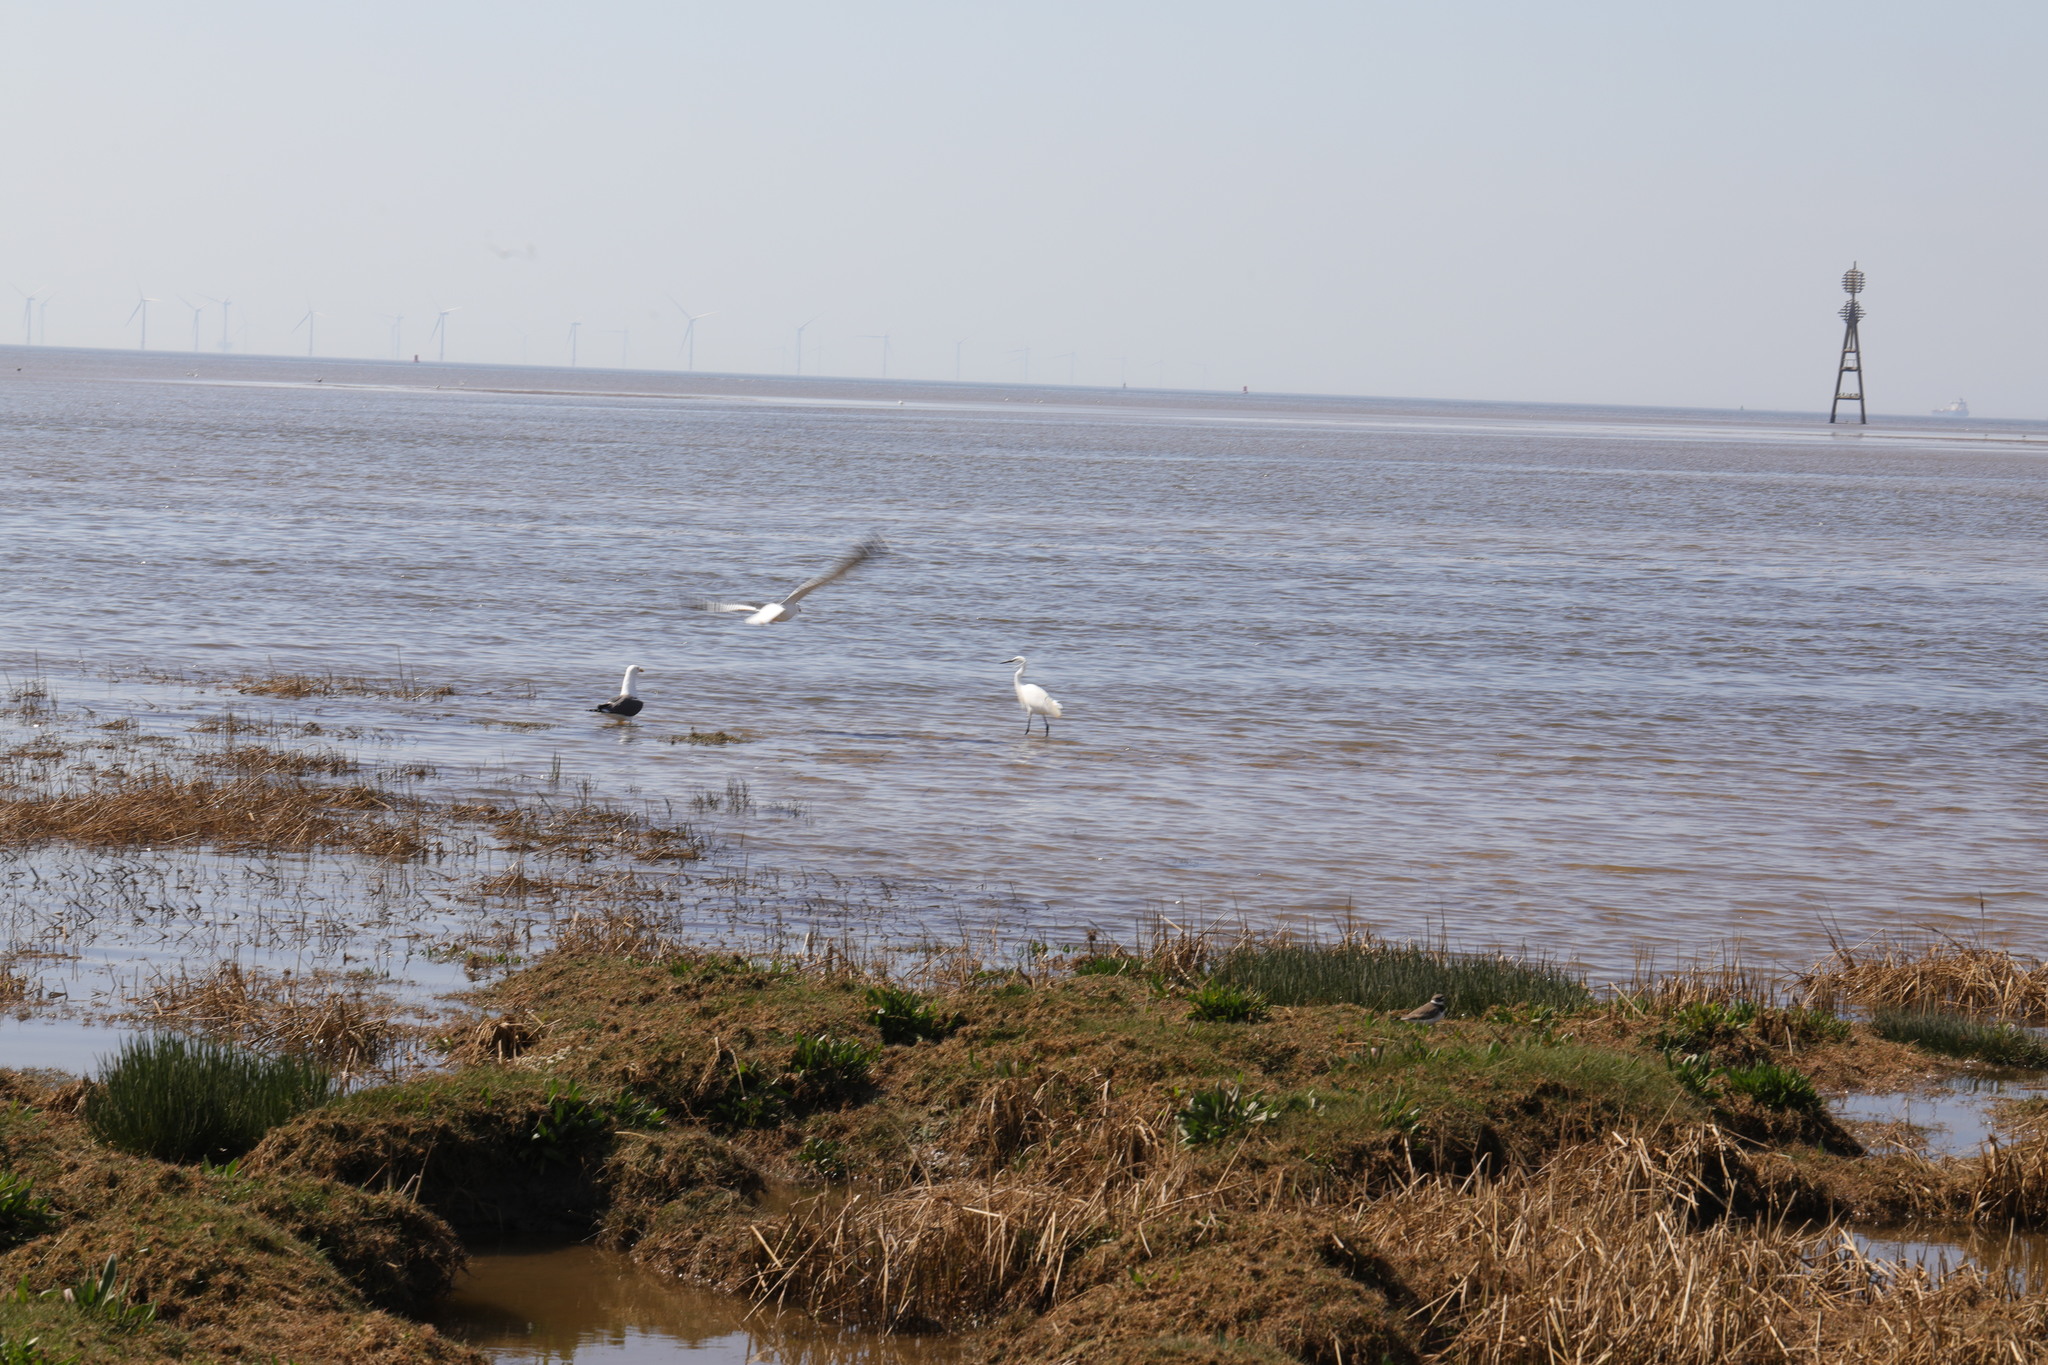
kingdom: Animalia
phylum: Chordata
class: Aves
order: Pelecaniformes
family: Ardeidae
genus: Egretta
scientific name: Egretta garzetta
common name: Little egret
